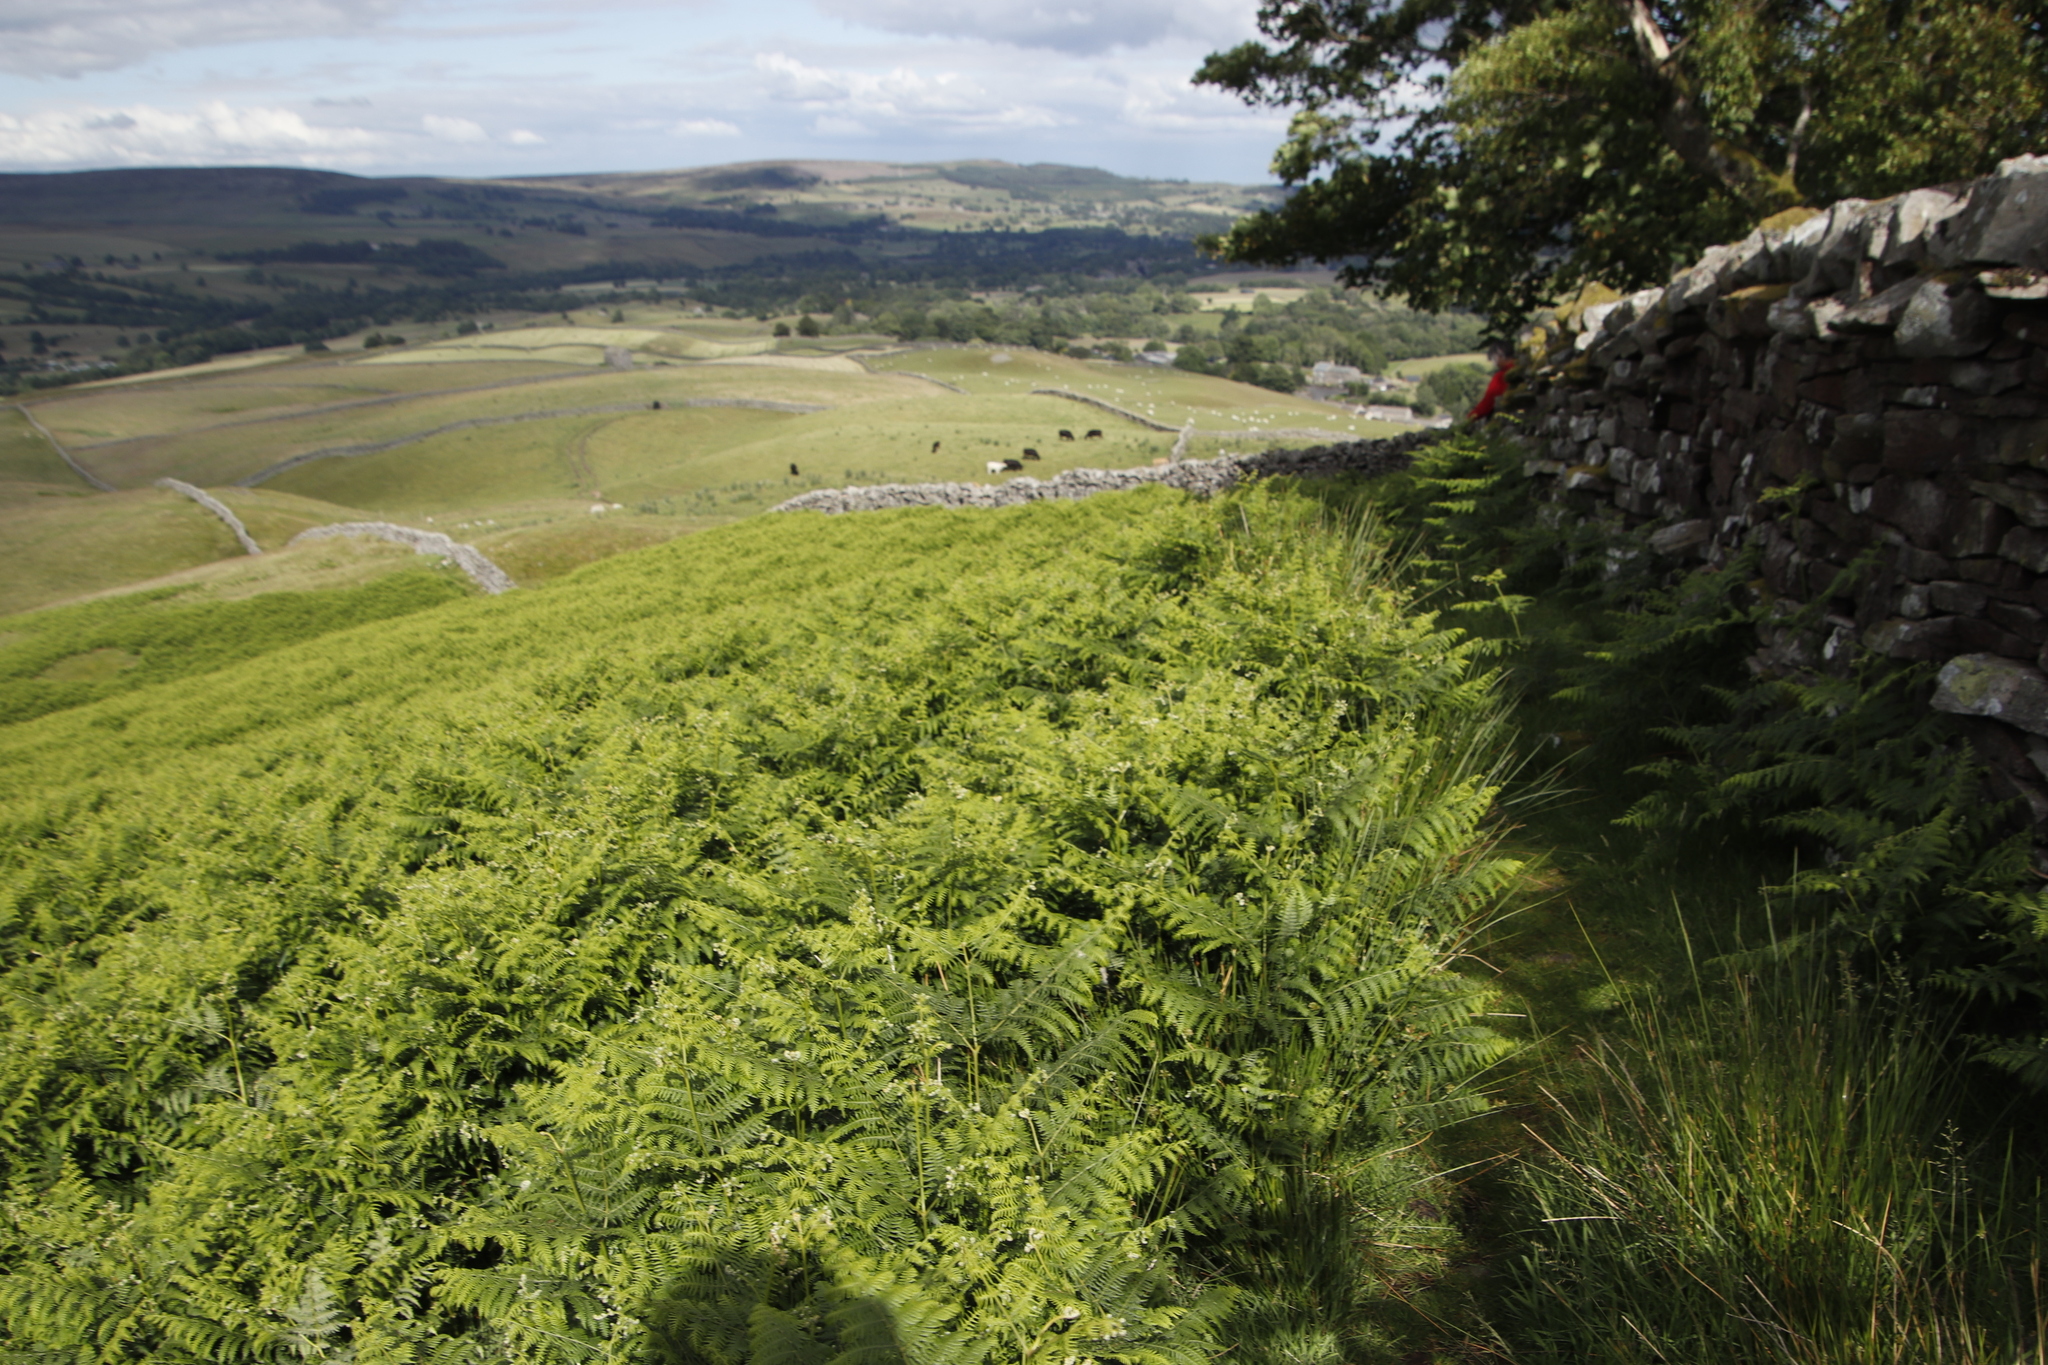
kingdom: Plantae
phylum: Tracheophyta
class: Polypodiopsida
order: Polypodiales
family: Dennstaedtiaceae
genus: Pteridium
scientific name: Pteridium aquilinum
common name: Bracken
